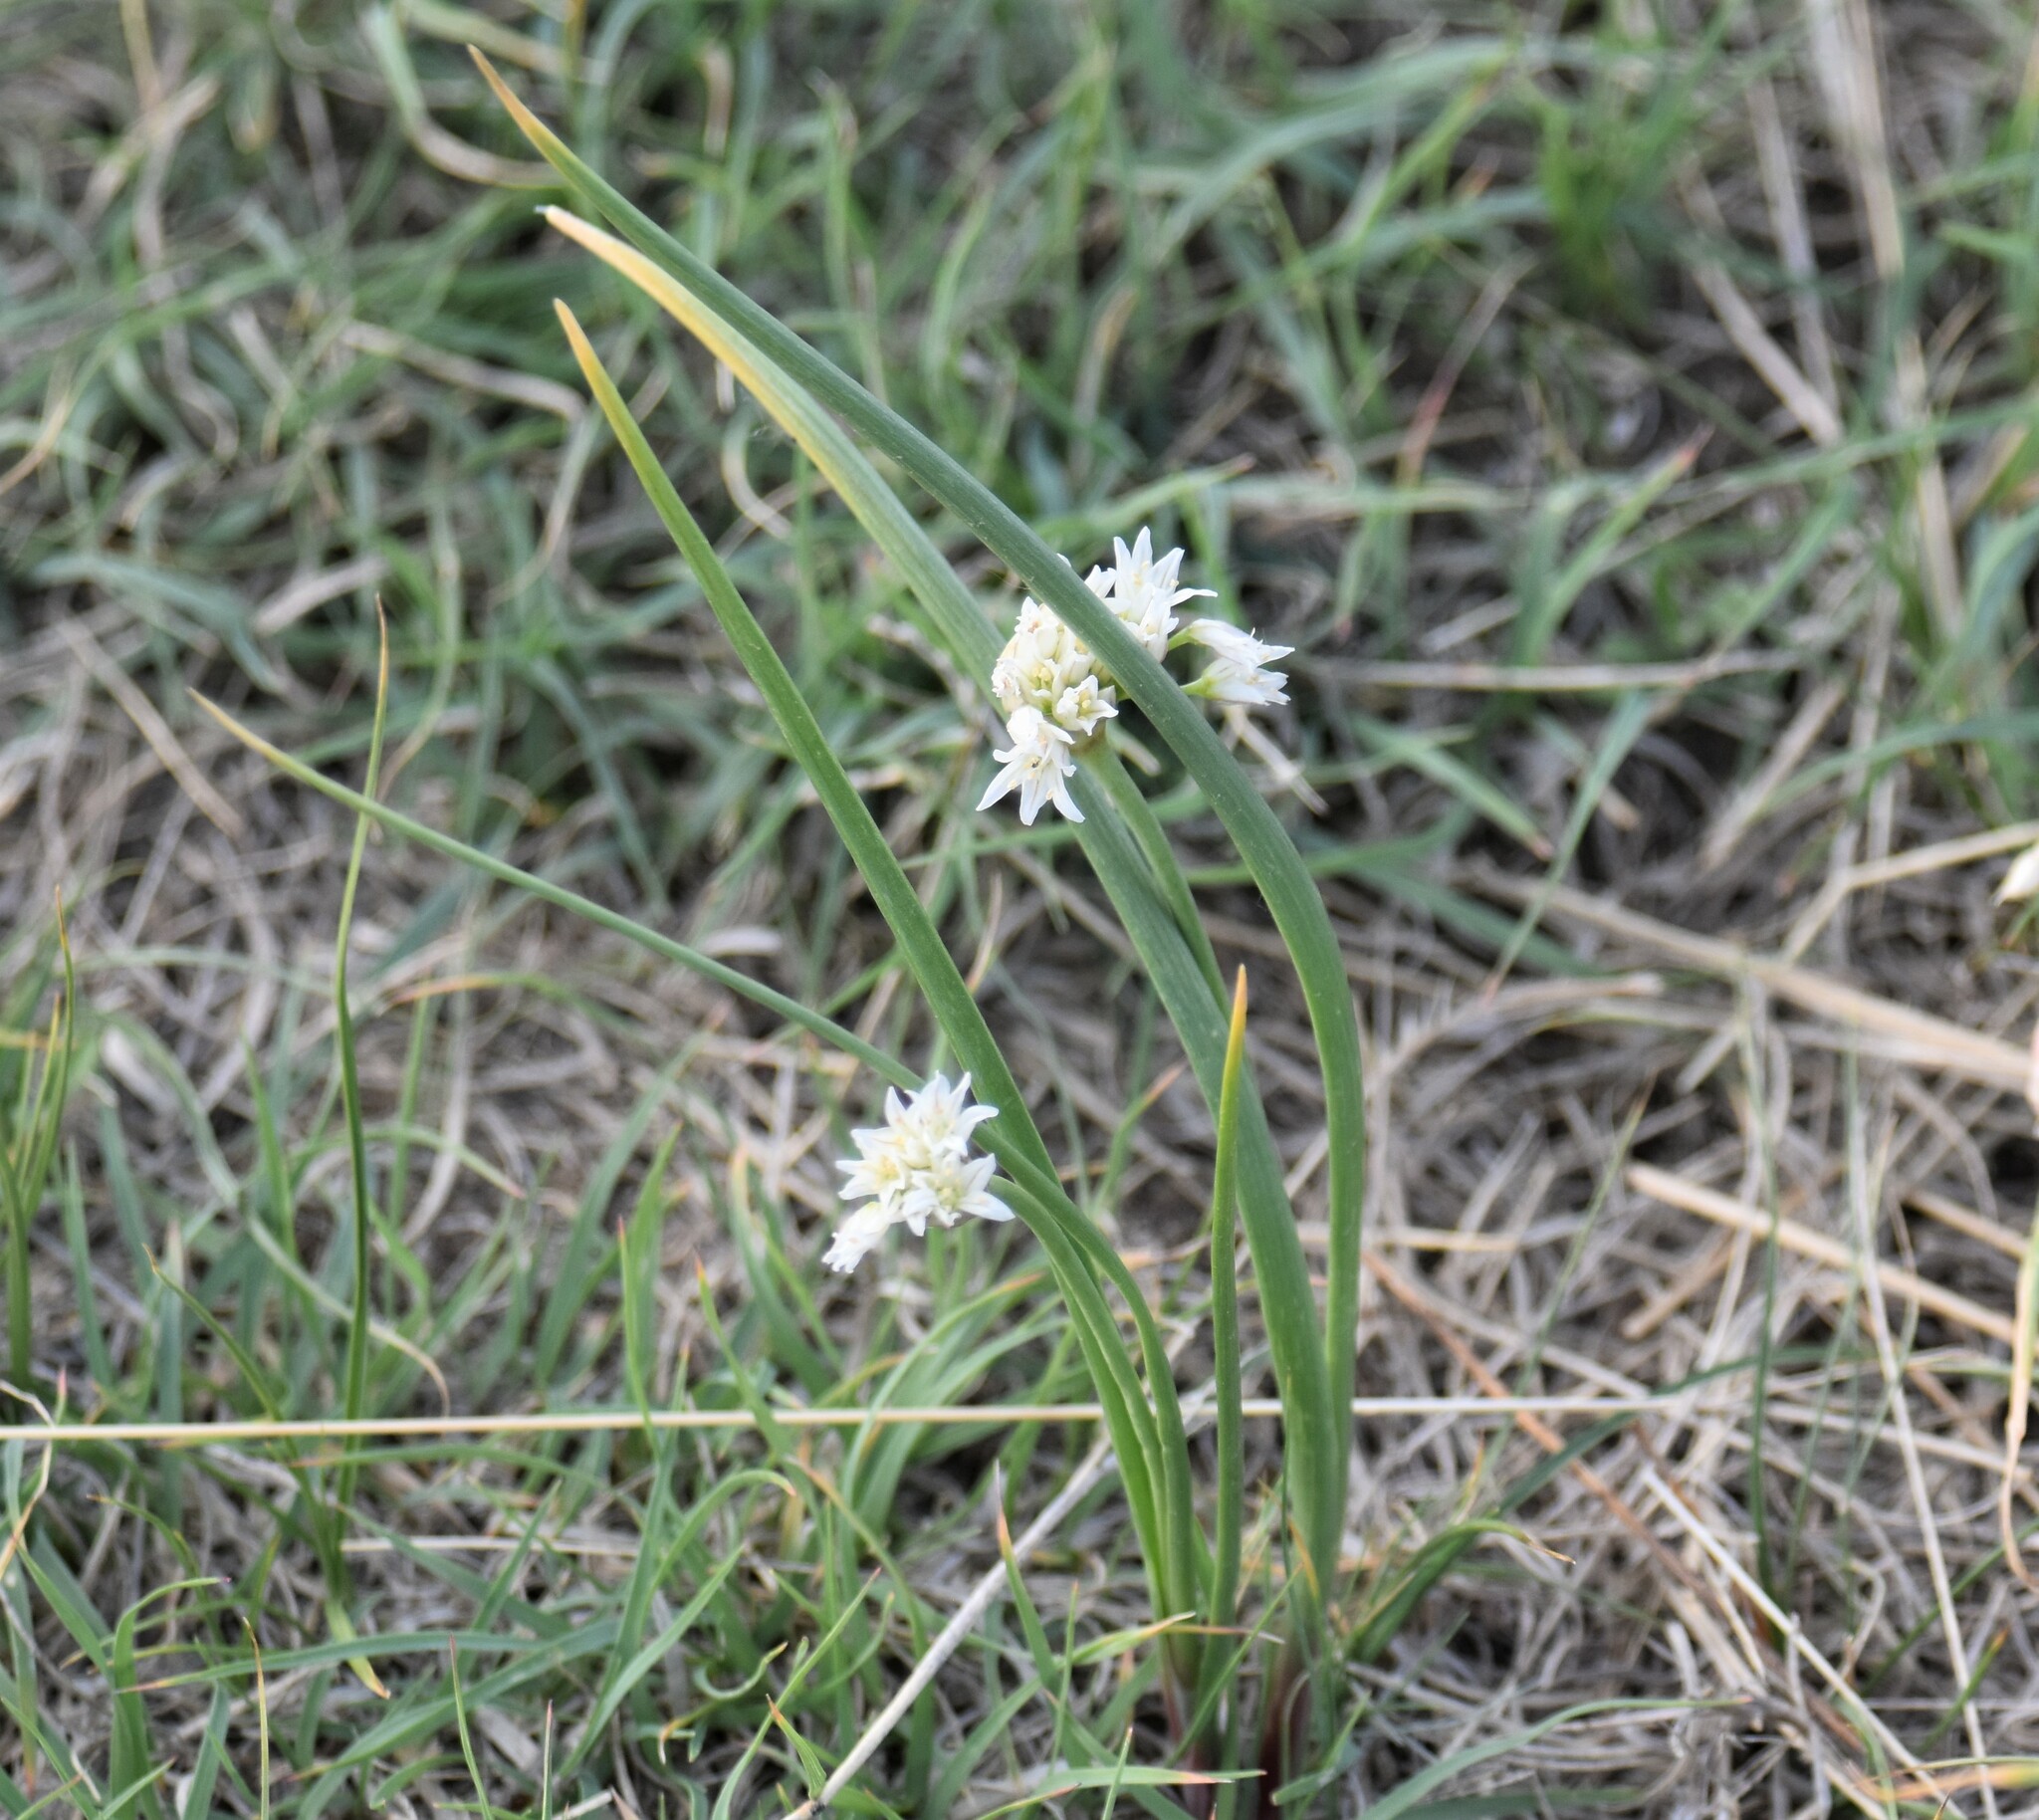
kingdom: Plantae
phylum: Tracheophyta
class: Liliopsida
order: Asparagales
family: Amaryllidaceae
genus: Allium
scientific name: Allium textile
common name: Prairie onion
